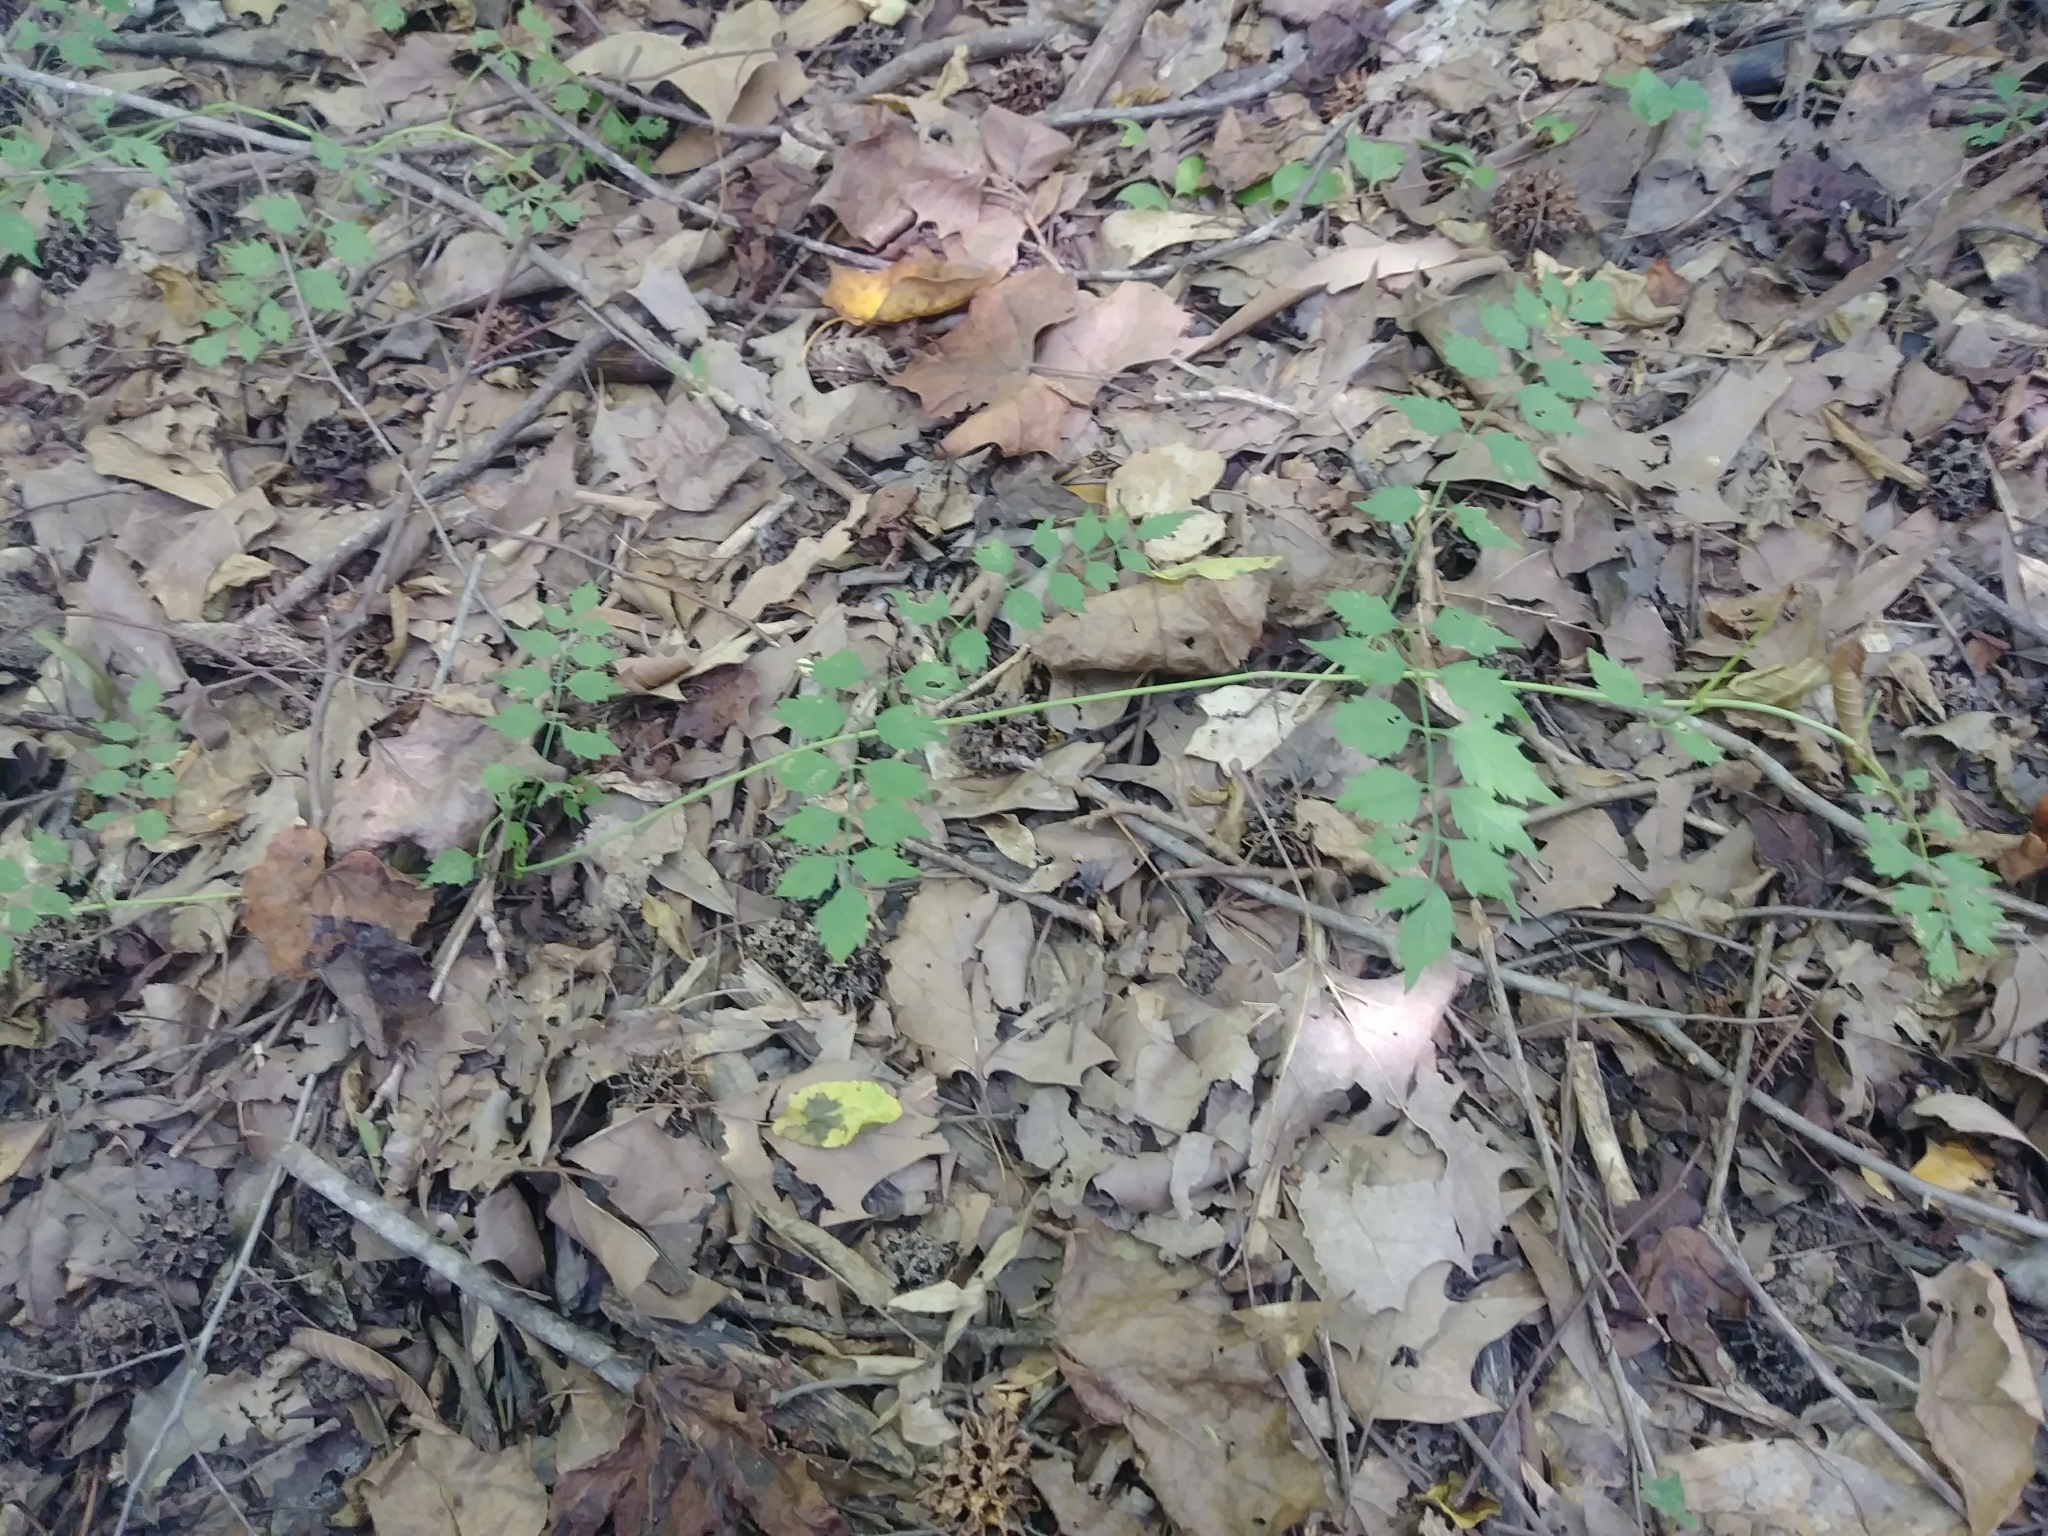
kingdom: Plantae
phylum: Tracheophyta
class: Magnoliopsida
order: Lamiales
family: Bignoniaceae
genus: Campsis
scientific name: Campsis radicans
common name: Trumpet-creeper
